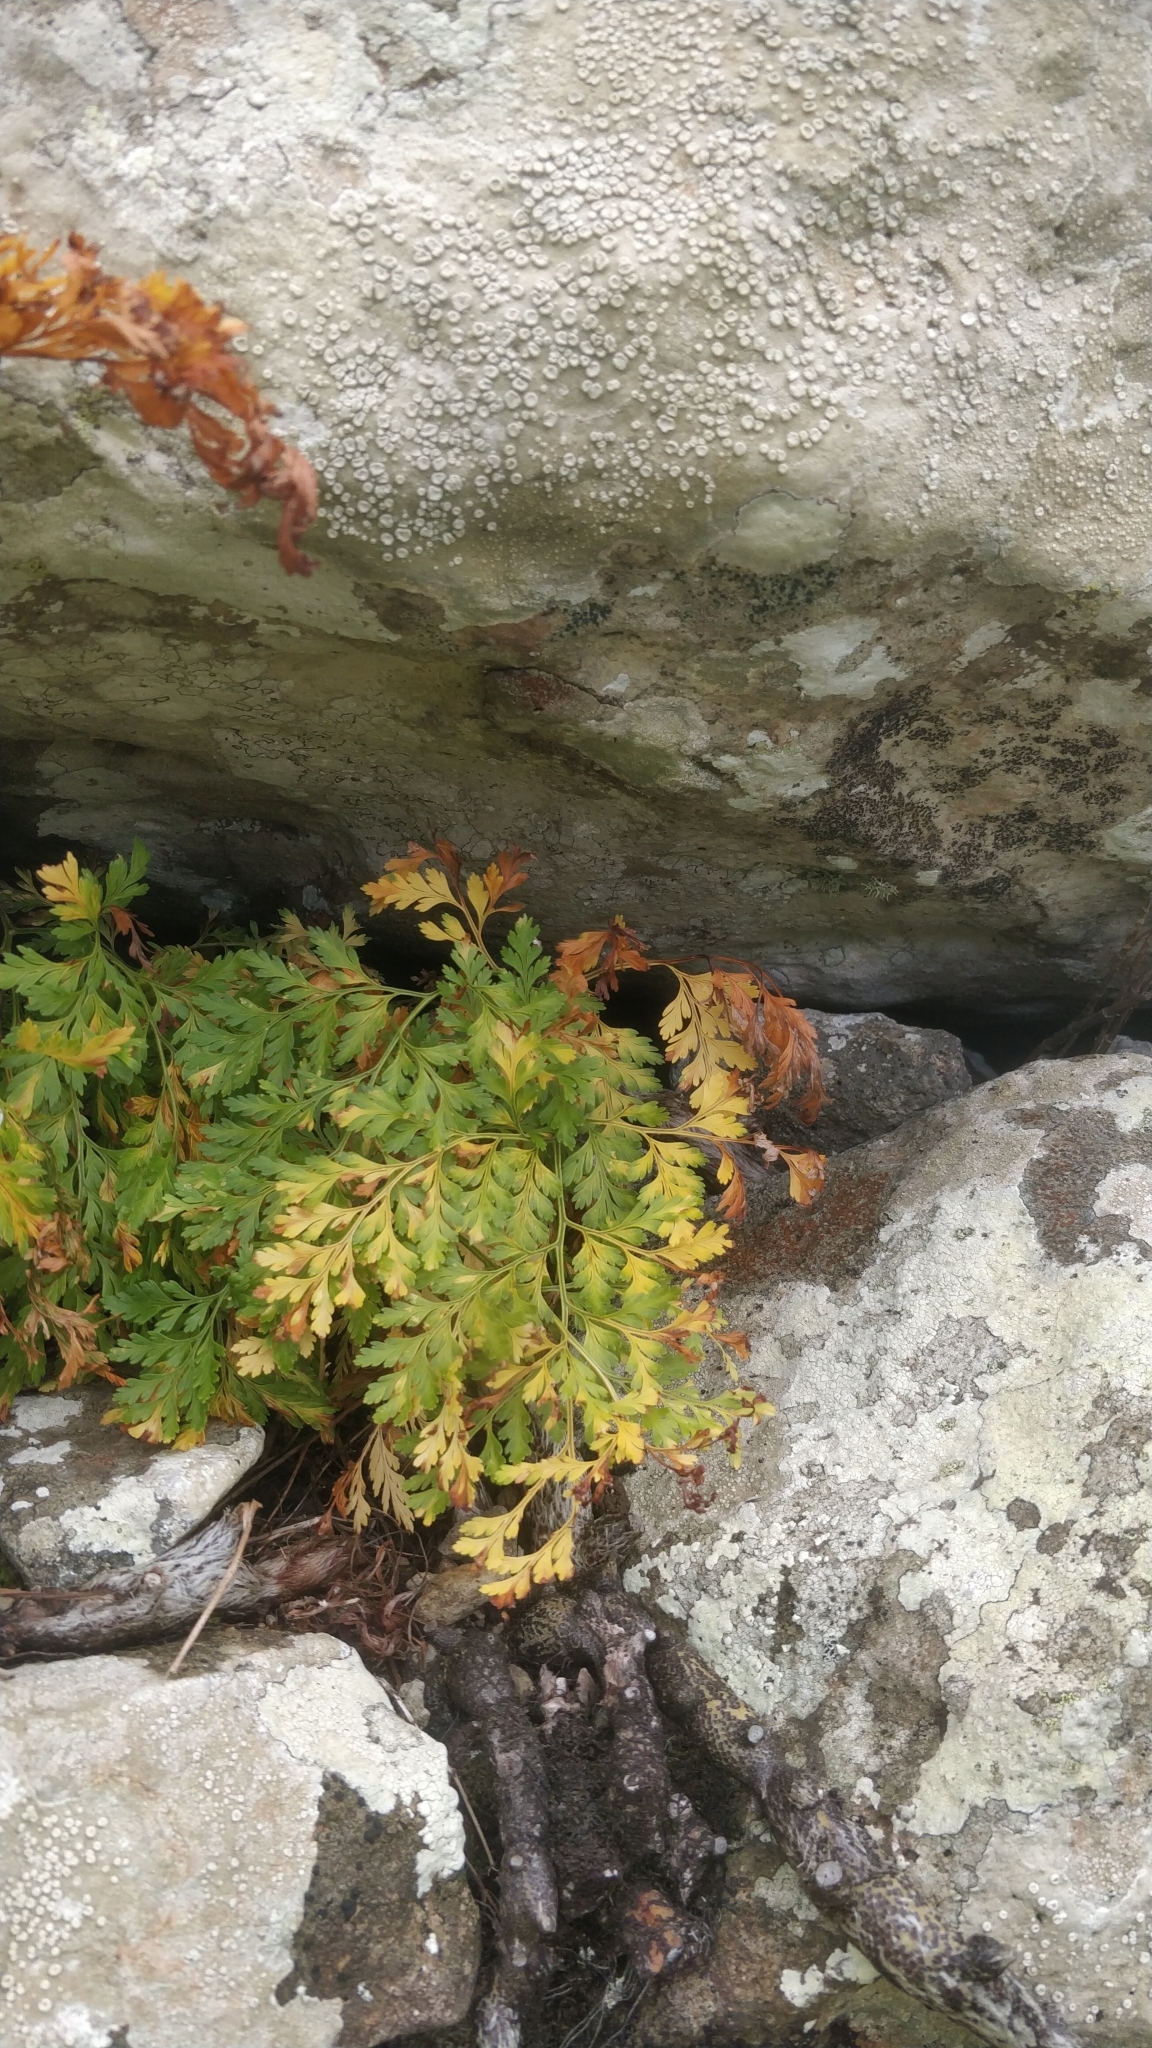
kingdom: Plantae
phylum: Tracheophyta
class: Polypodiopsida
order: Polypodiales
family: Davalliaceae
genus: Davallia
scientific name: Davallia canariensis
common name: Hare's-foot fern
